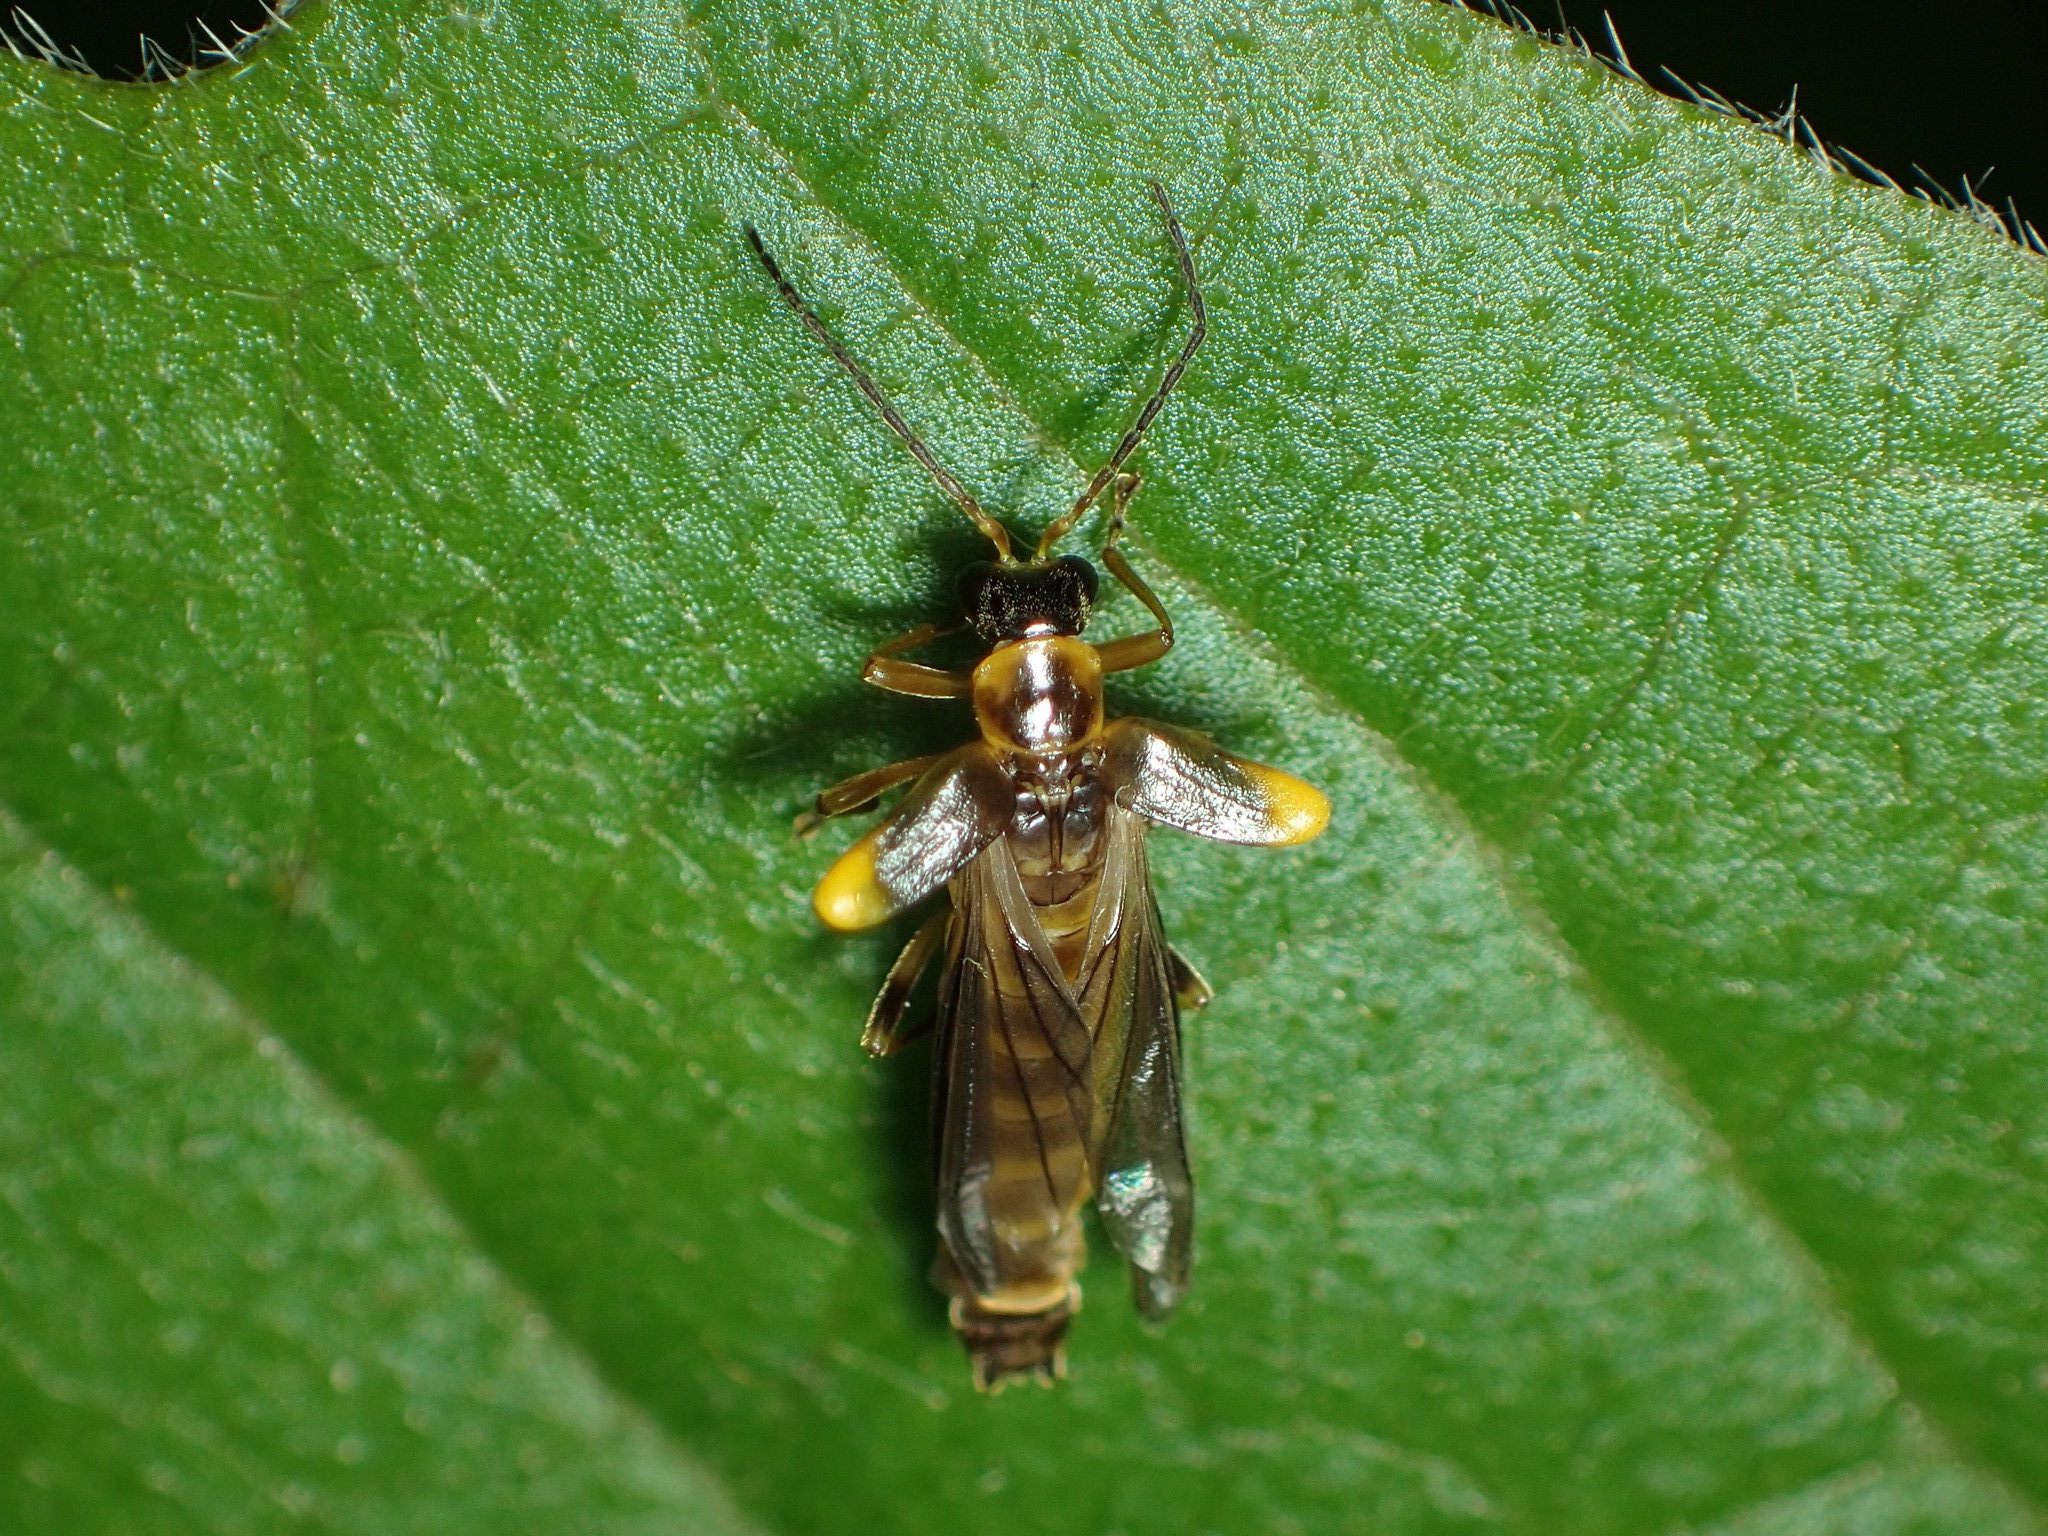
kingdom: Animalia
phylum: Arthropoda
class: Insecta
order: Coleoptera
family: Cantharidae
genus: Trypherus
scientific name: Trypherus latipennis
